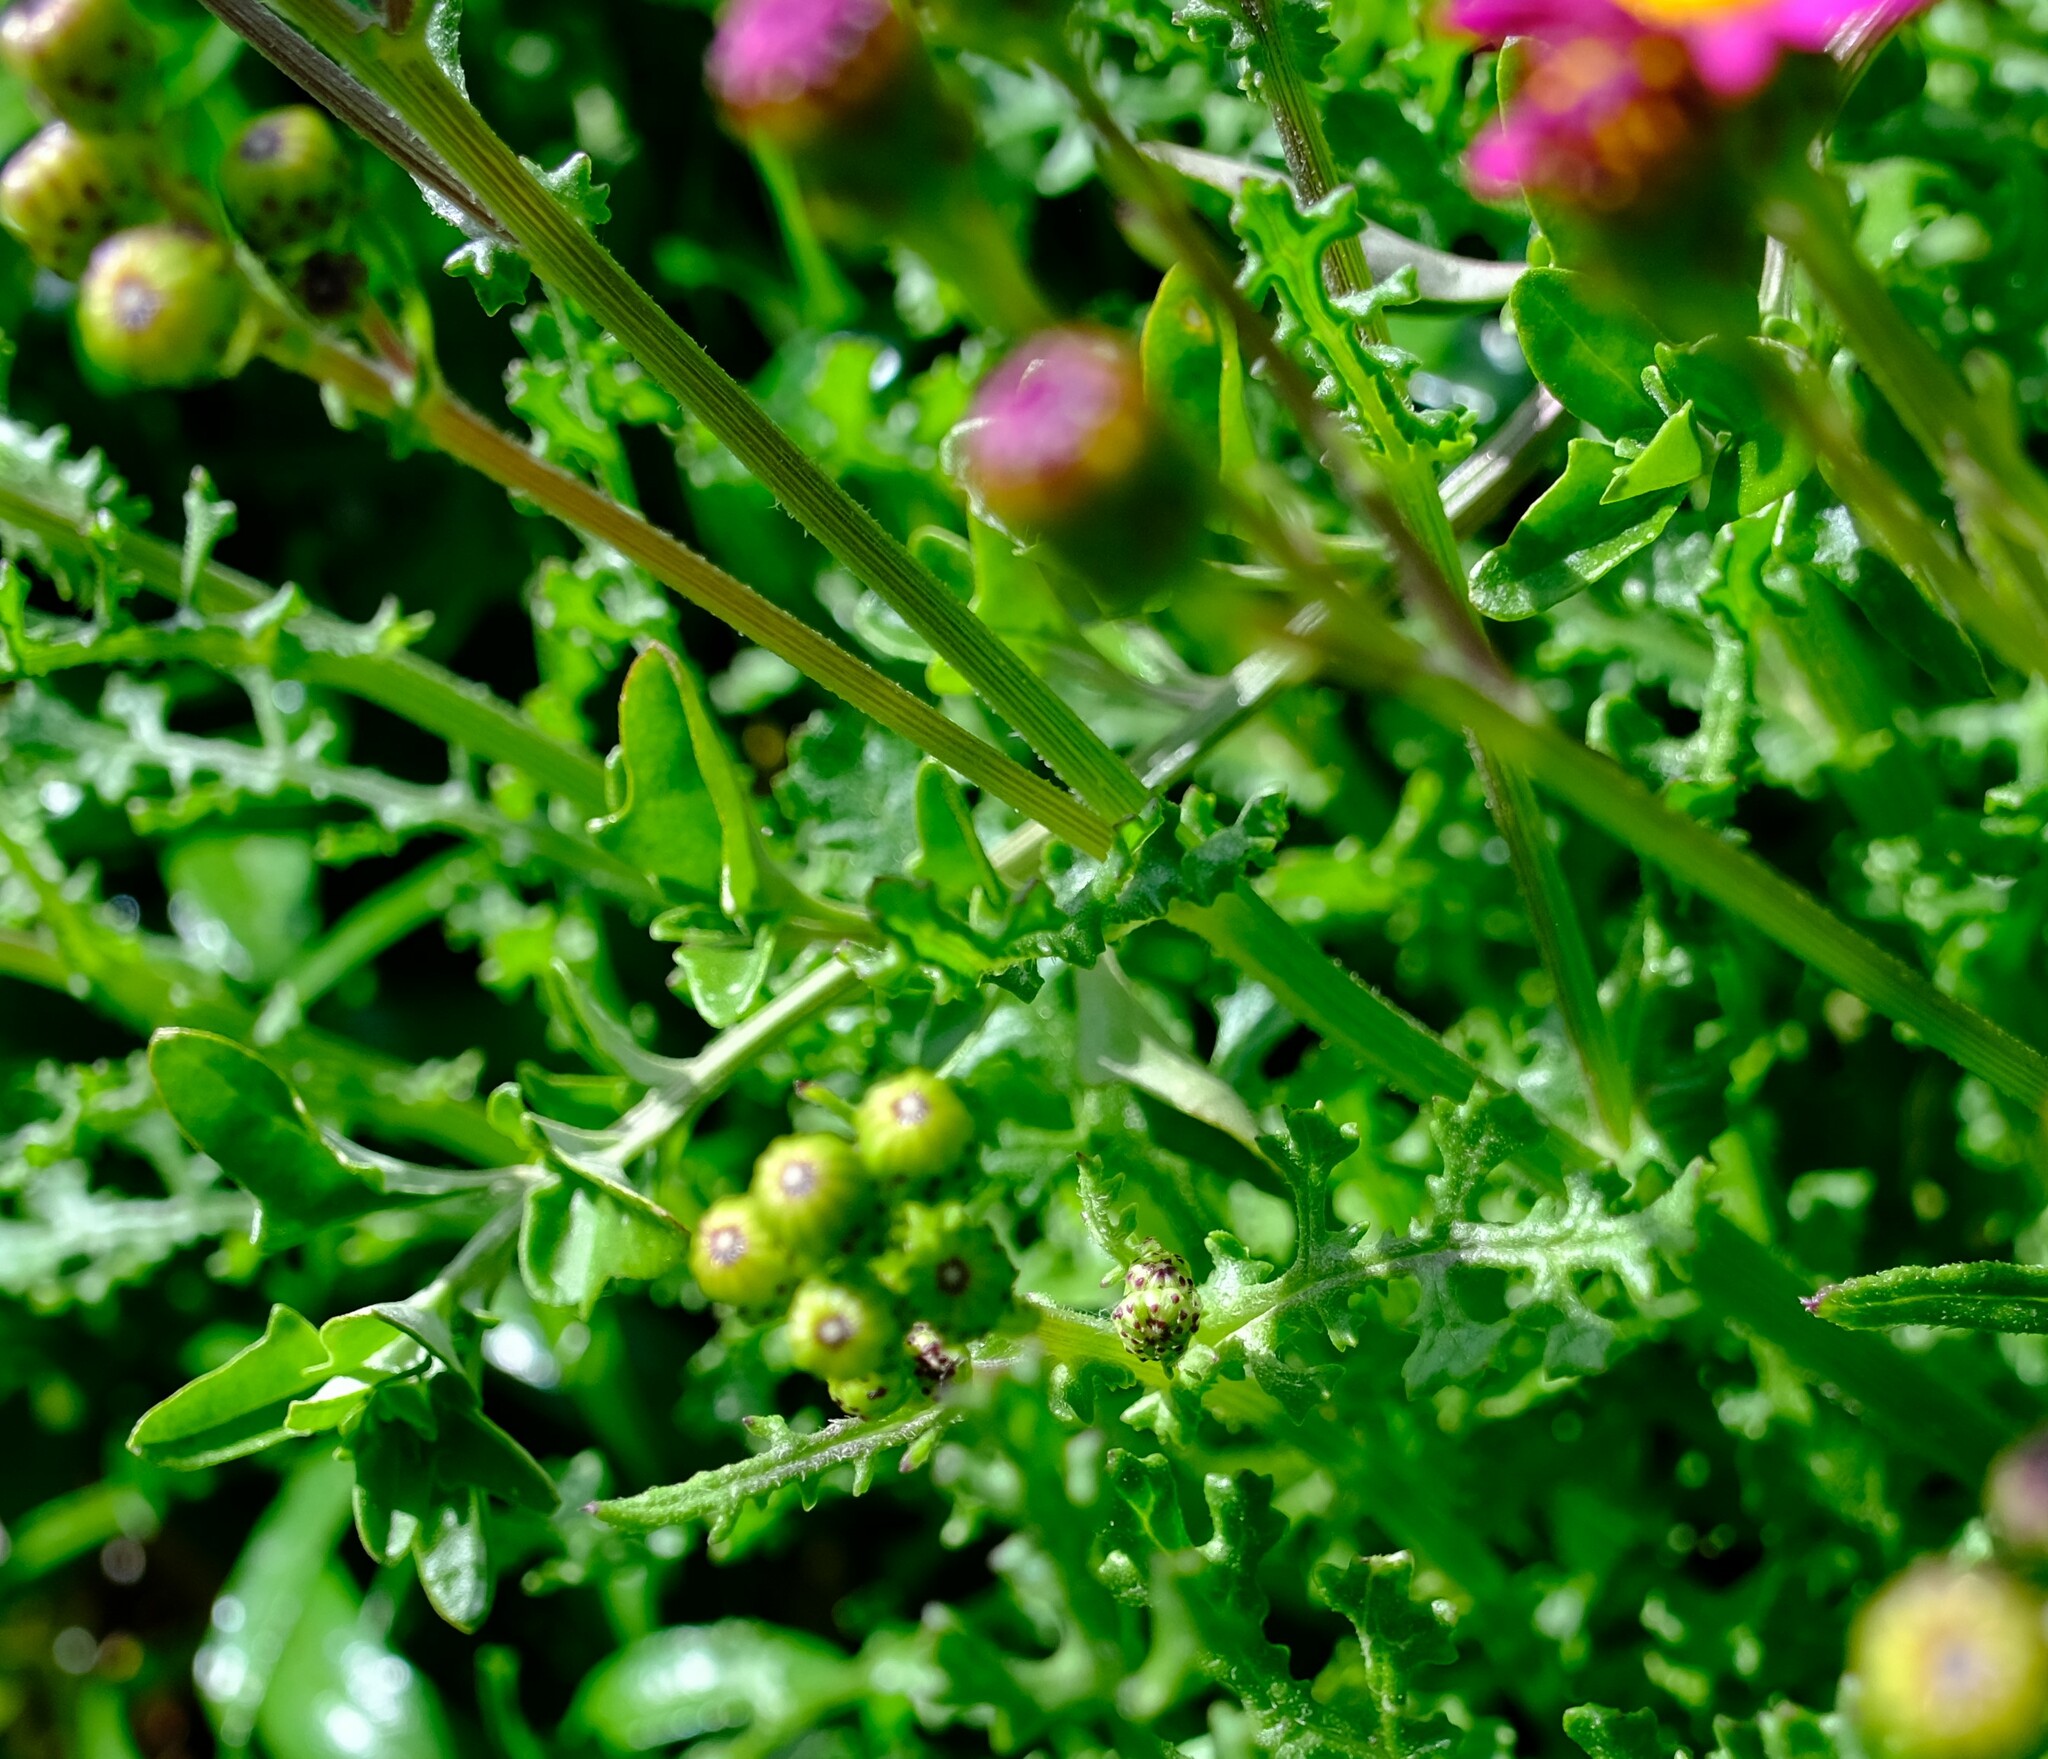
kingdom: Plantae
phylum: Tracheophyta
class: Magnoliopsida
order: Asterales
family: Asteraceae
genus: Senecio
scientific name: Senecio elegans
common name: Purple groundsel
